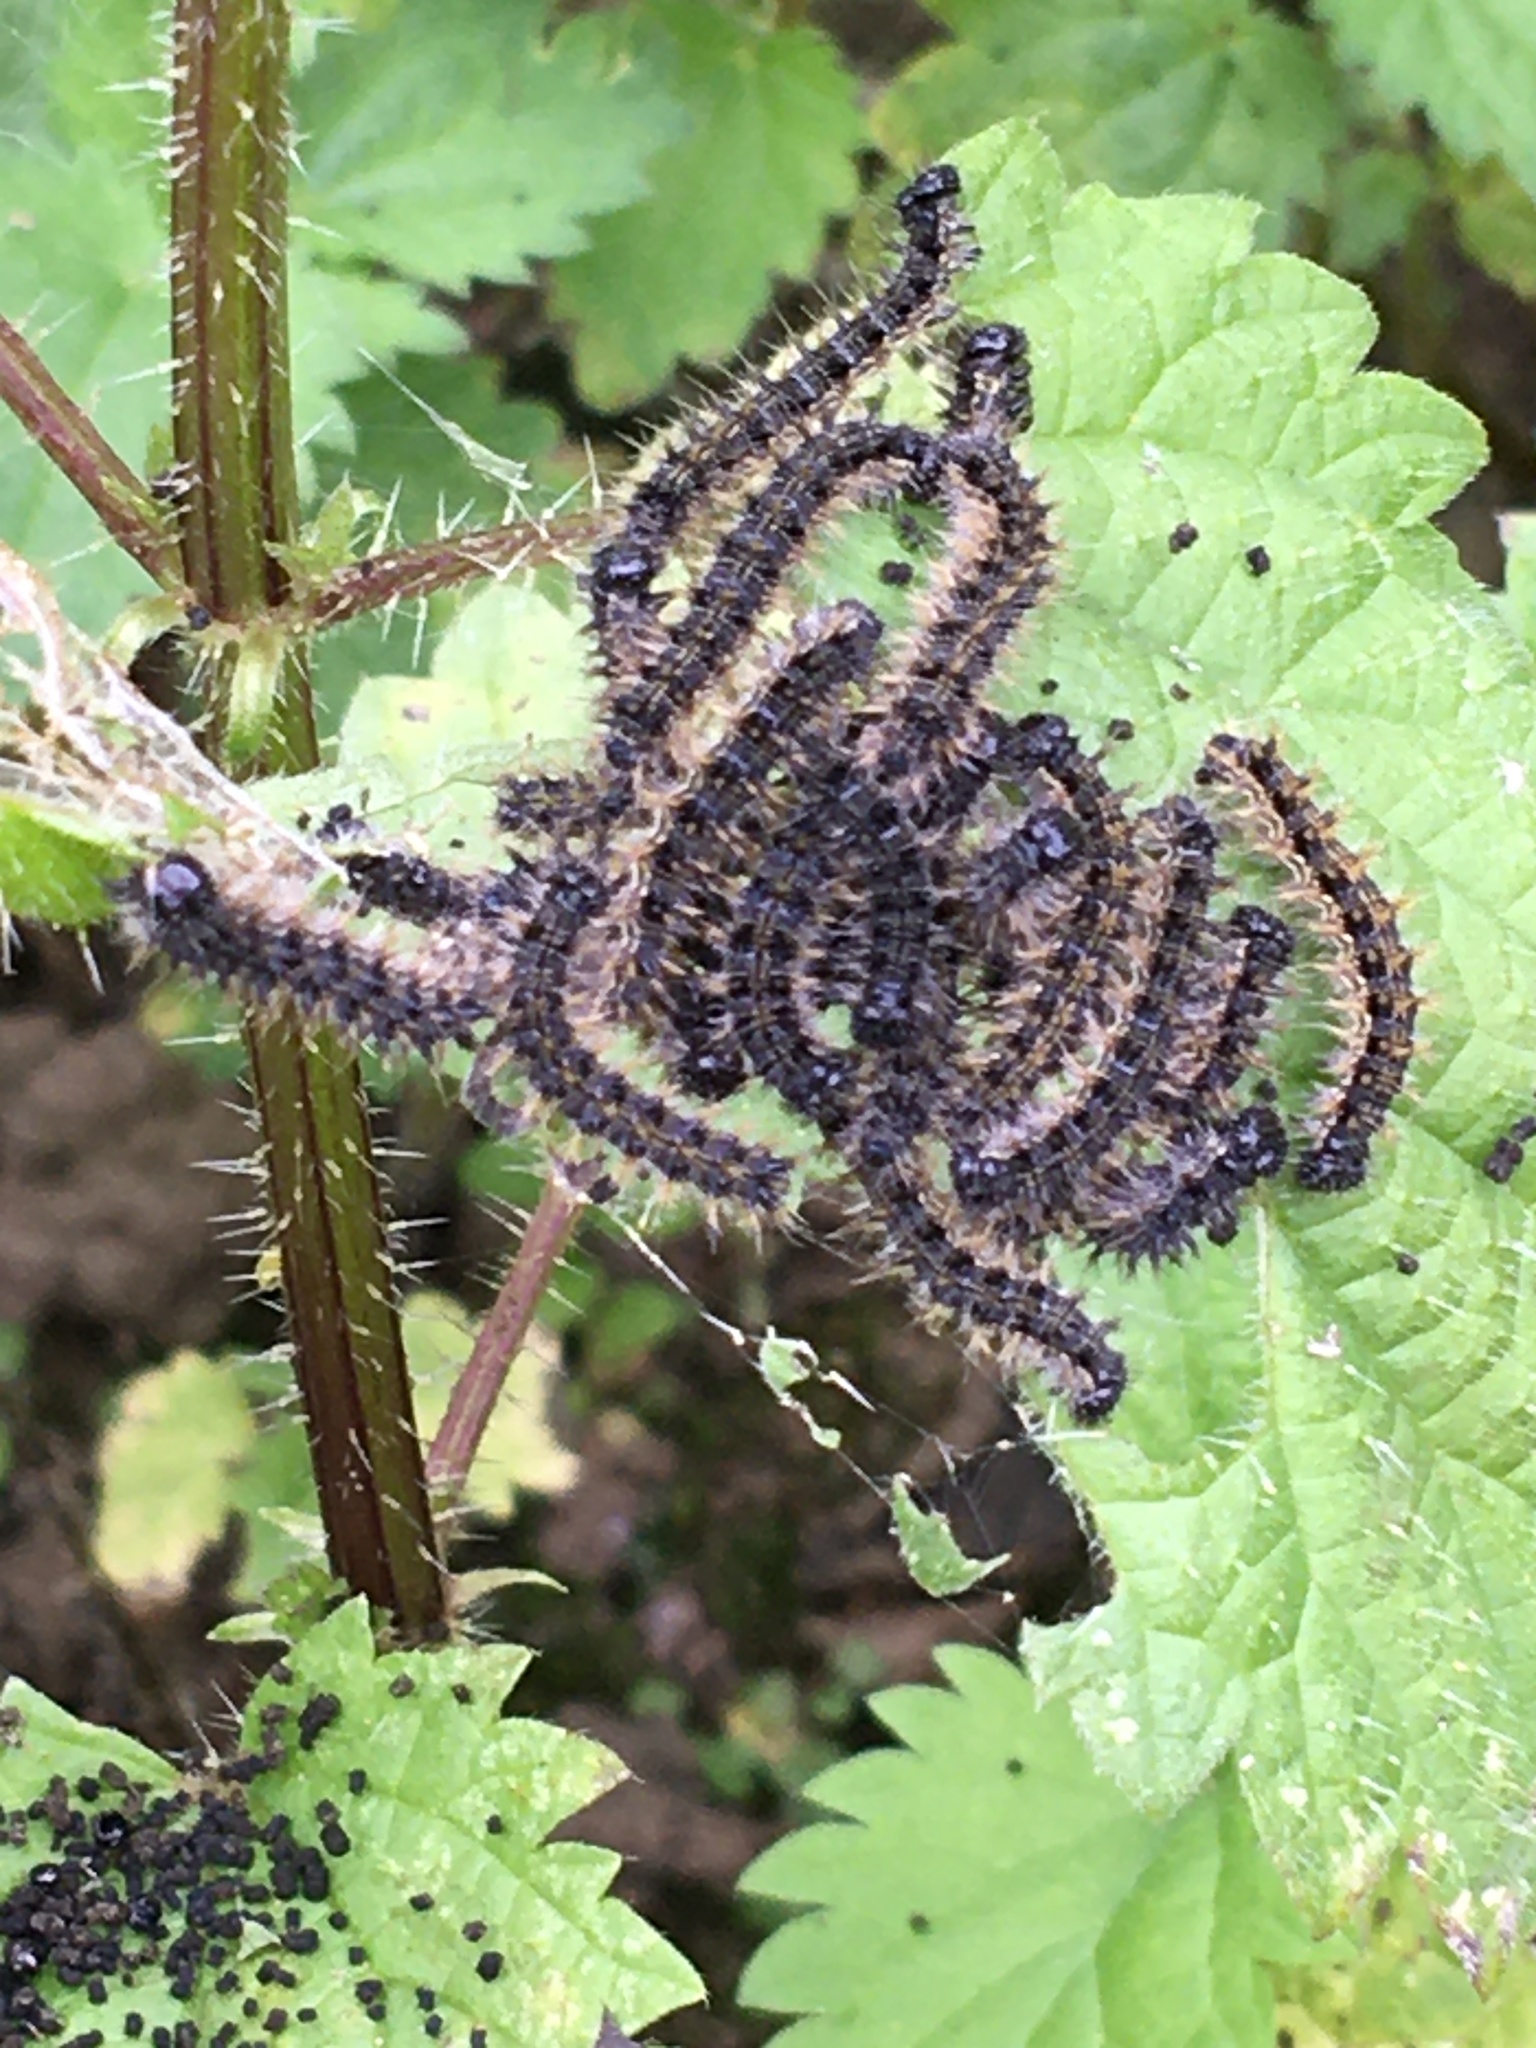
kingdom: Animalia
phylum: Arthropoda
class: Insecta
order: Lepidoptera
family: Nymphalidae
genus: Aglais
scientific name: Aglais urticae
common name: Small tortoiseshell
